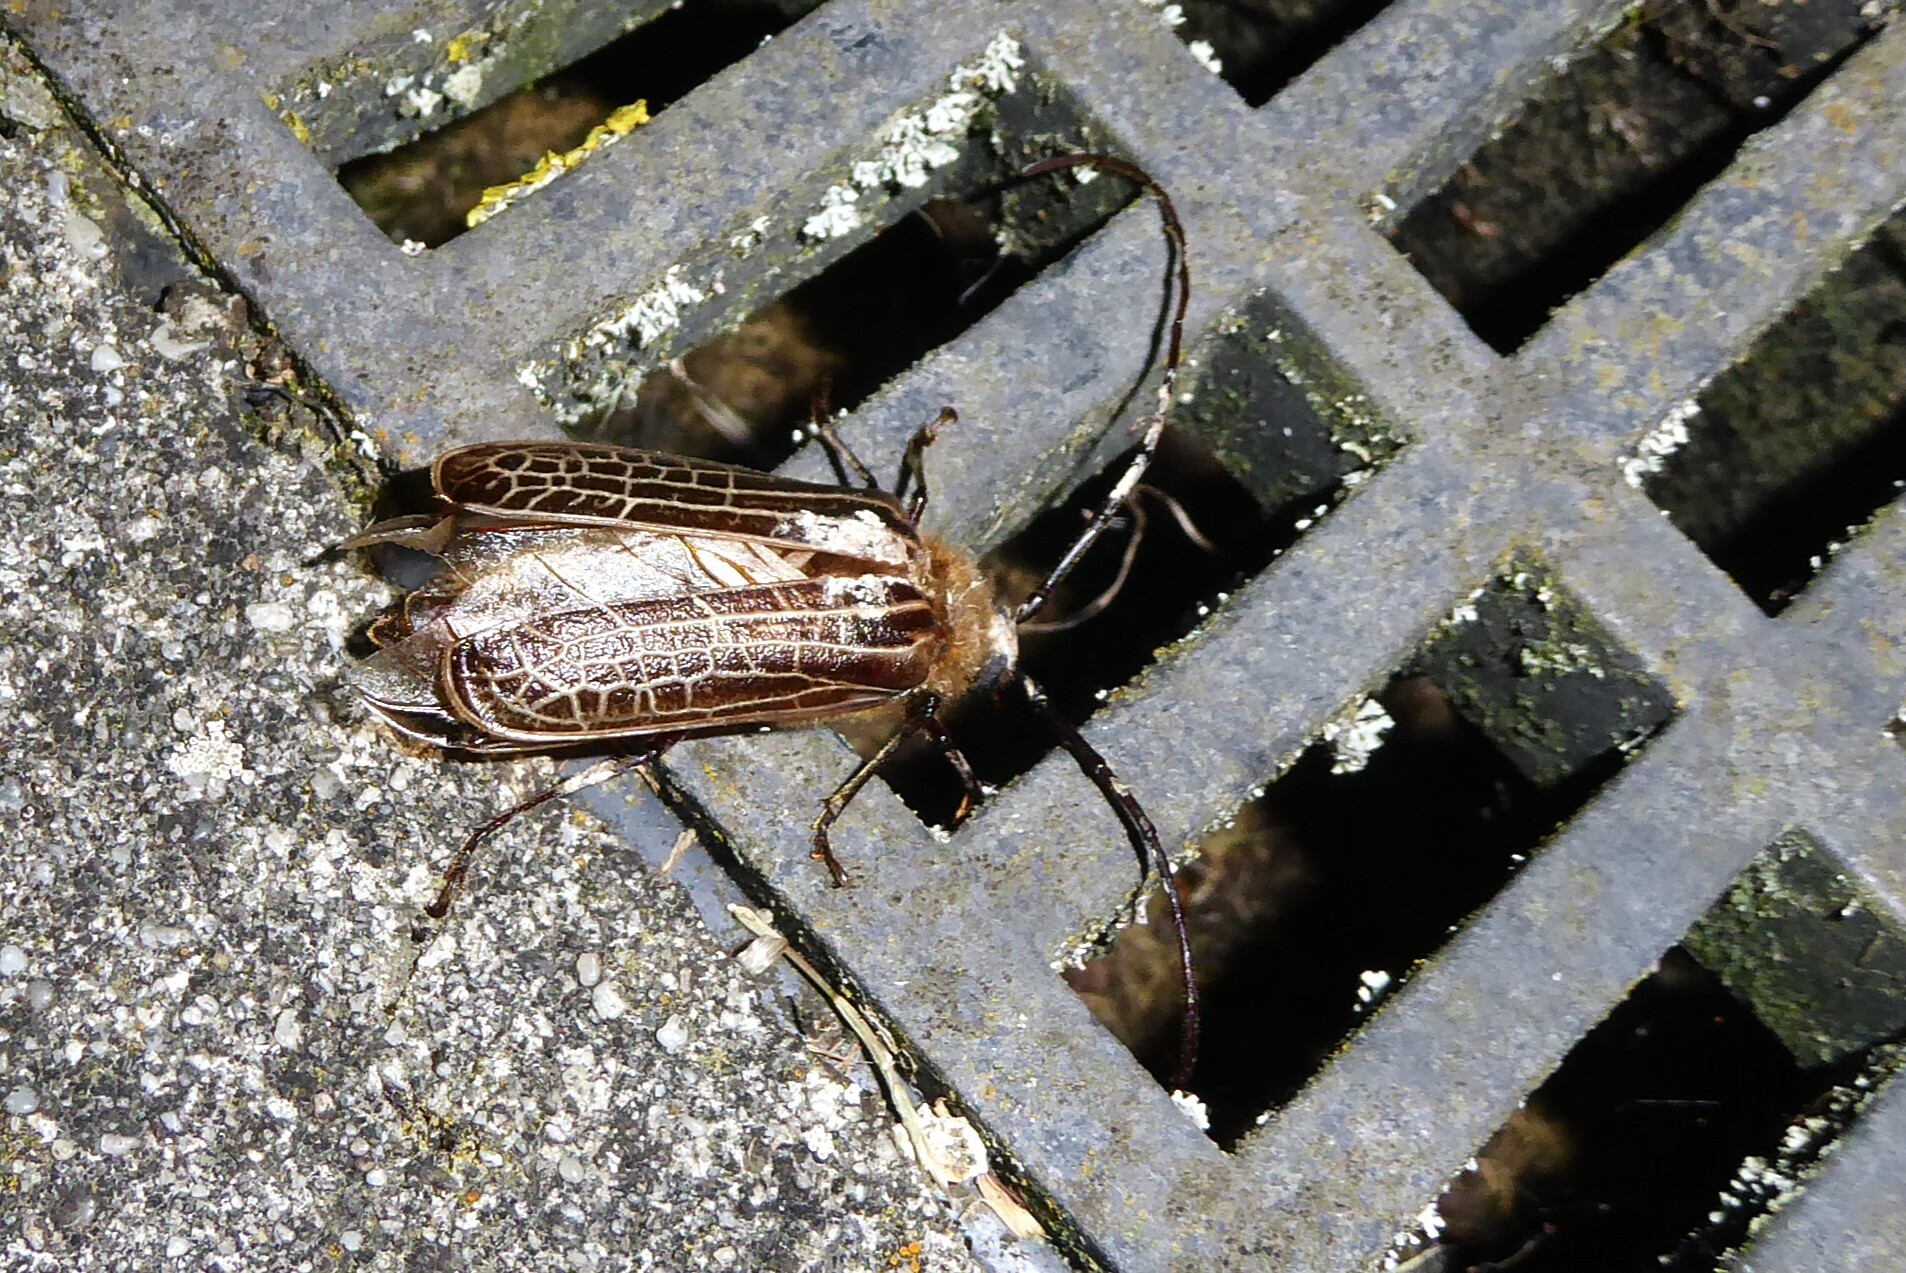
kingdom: Animalia
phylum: Arthropoda
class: Insecta
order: Coleoptera
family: Cerambycidae
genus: Prionoplus
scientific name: Prionoplus reticularis
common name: Huhu beetle
